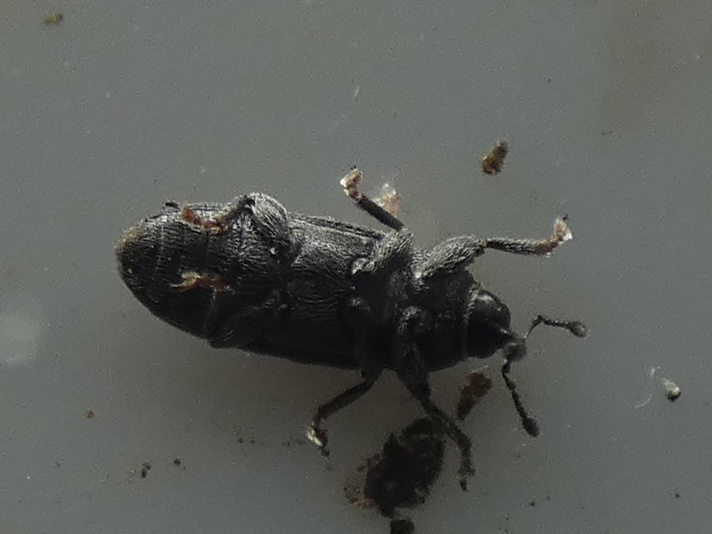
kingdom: Animalia
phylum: Arthropoda
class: Insecta
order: Coleoptera
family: Curculionidae
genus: Mecinus
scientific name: Mecinus pyraster
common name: Weevil
